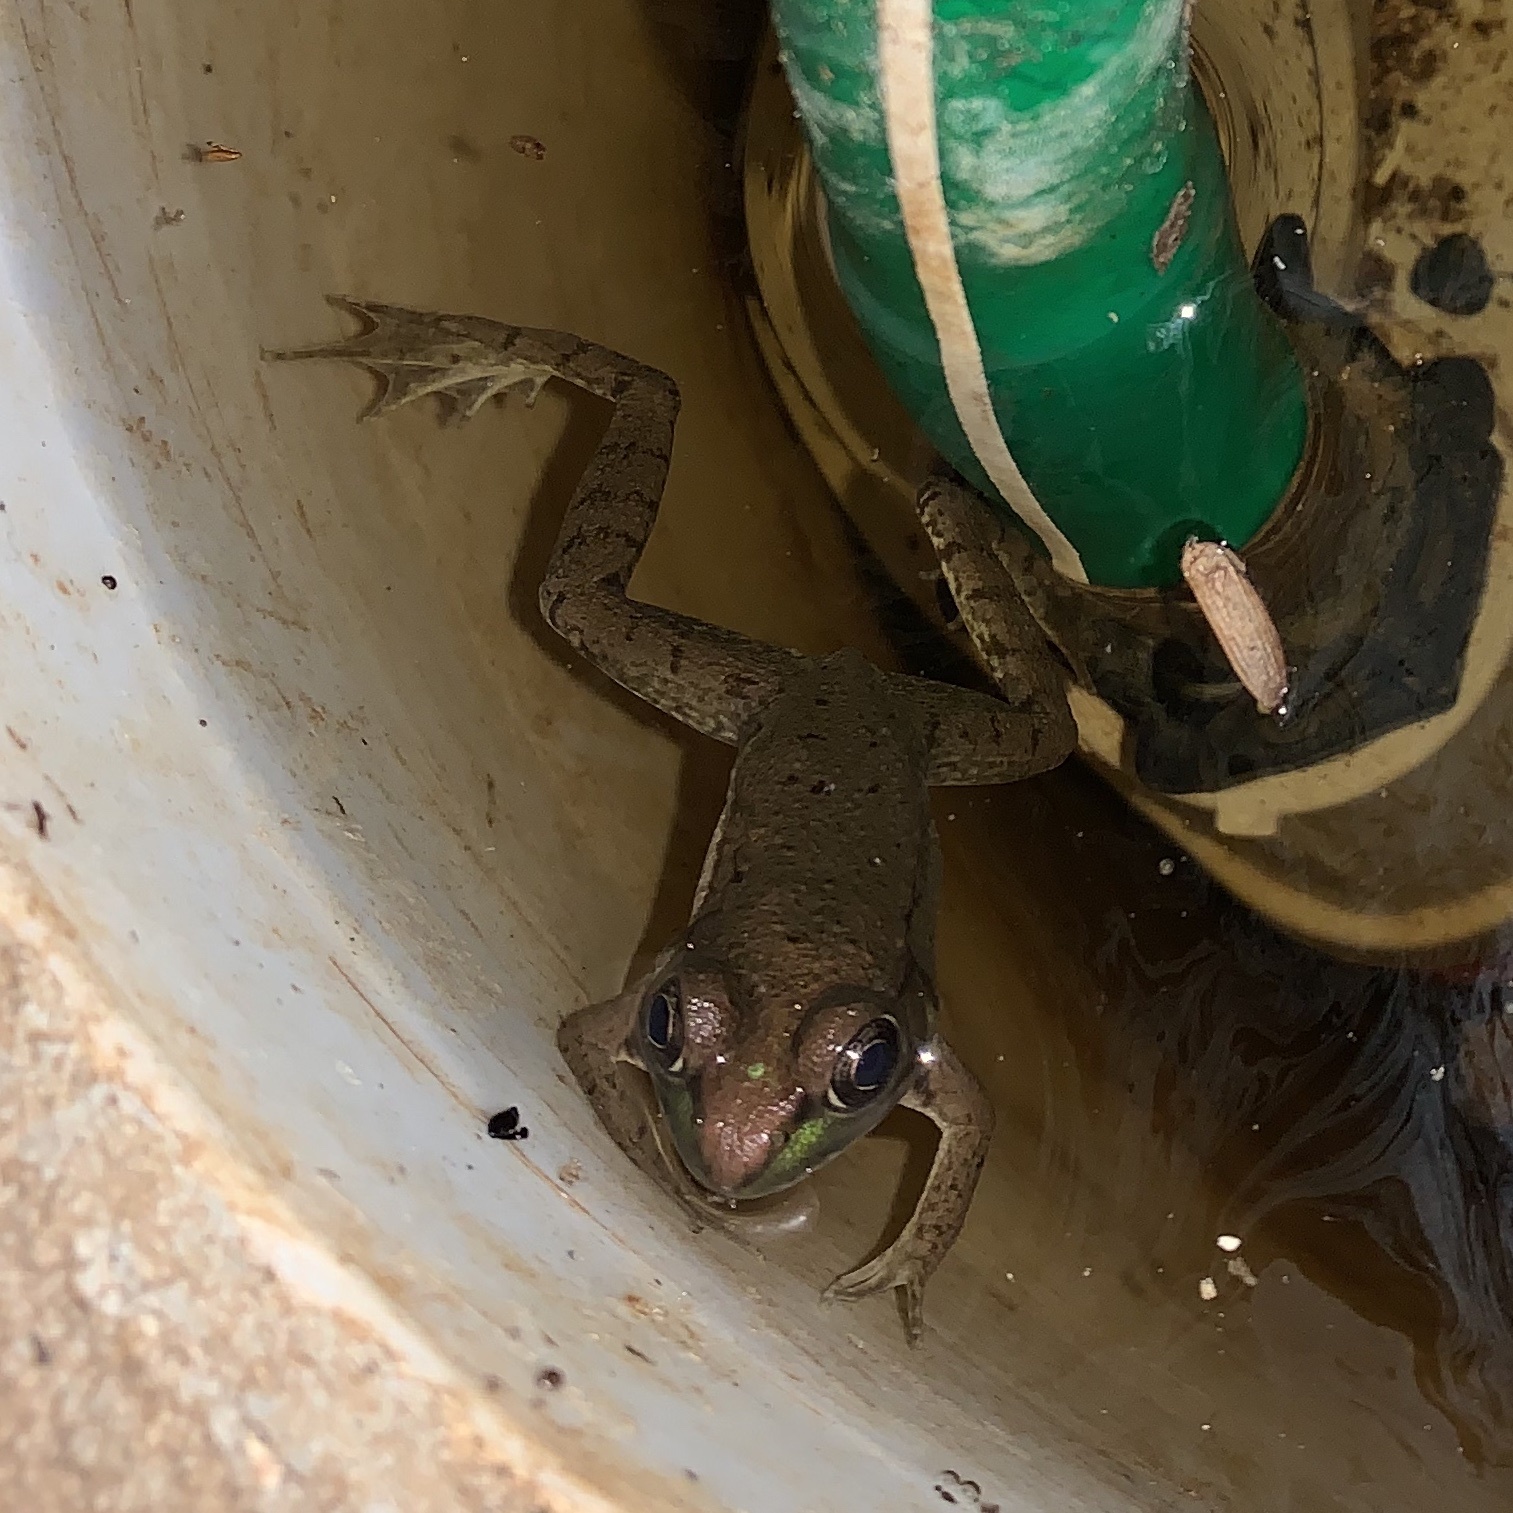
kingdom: Animalia
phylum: Chordata
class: Amphibia
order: Anura
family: Ranidae
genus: Lithobates
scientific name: Lithobates clamitans
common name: Green frog
